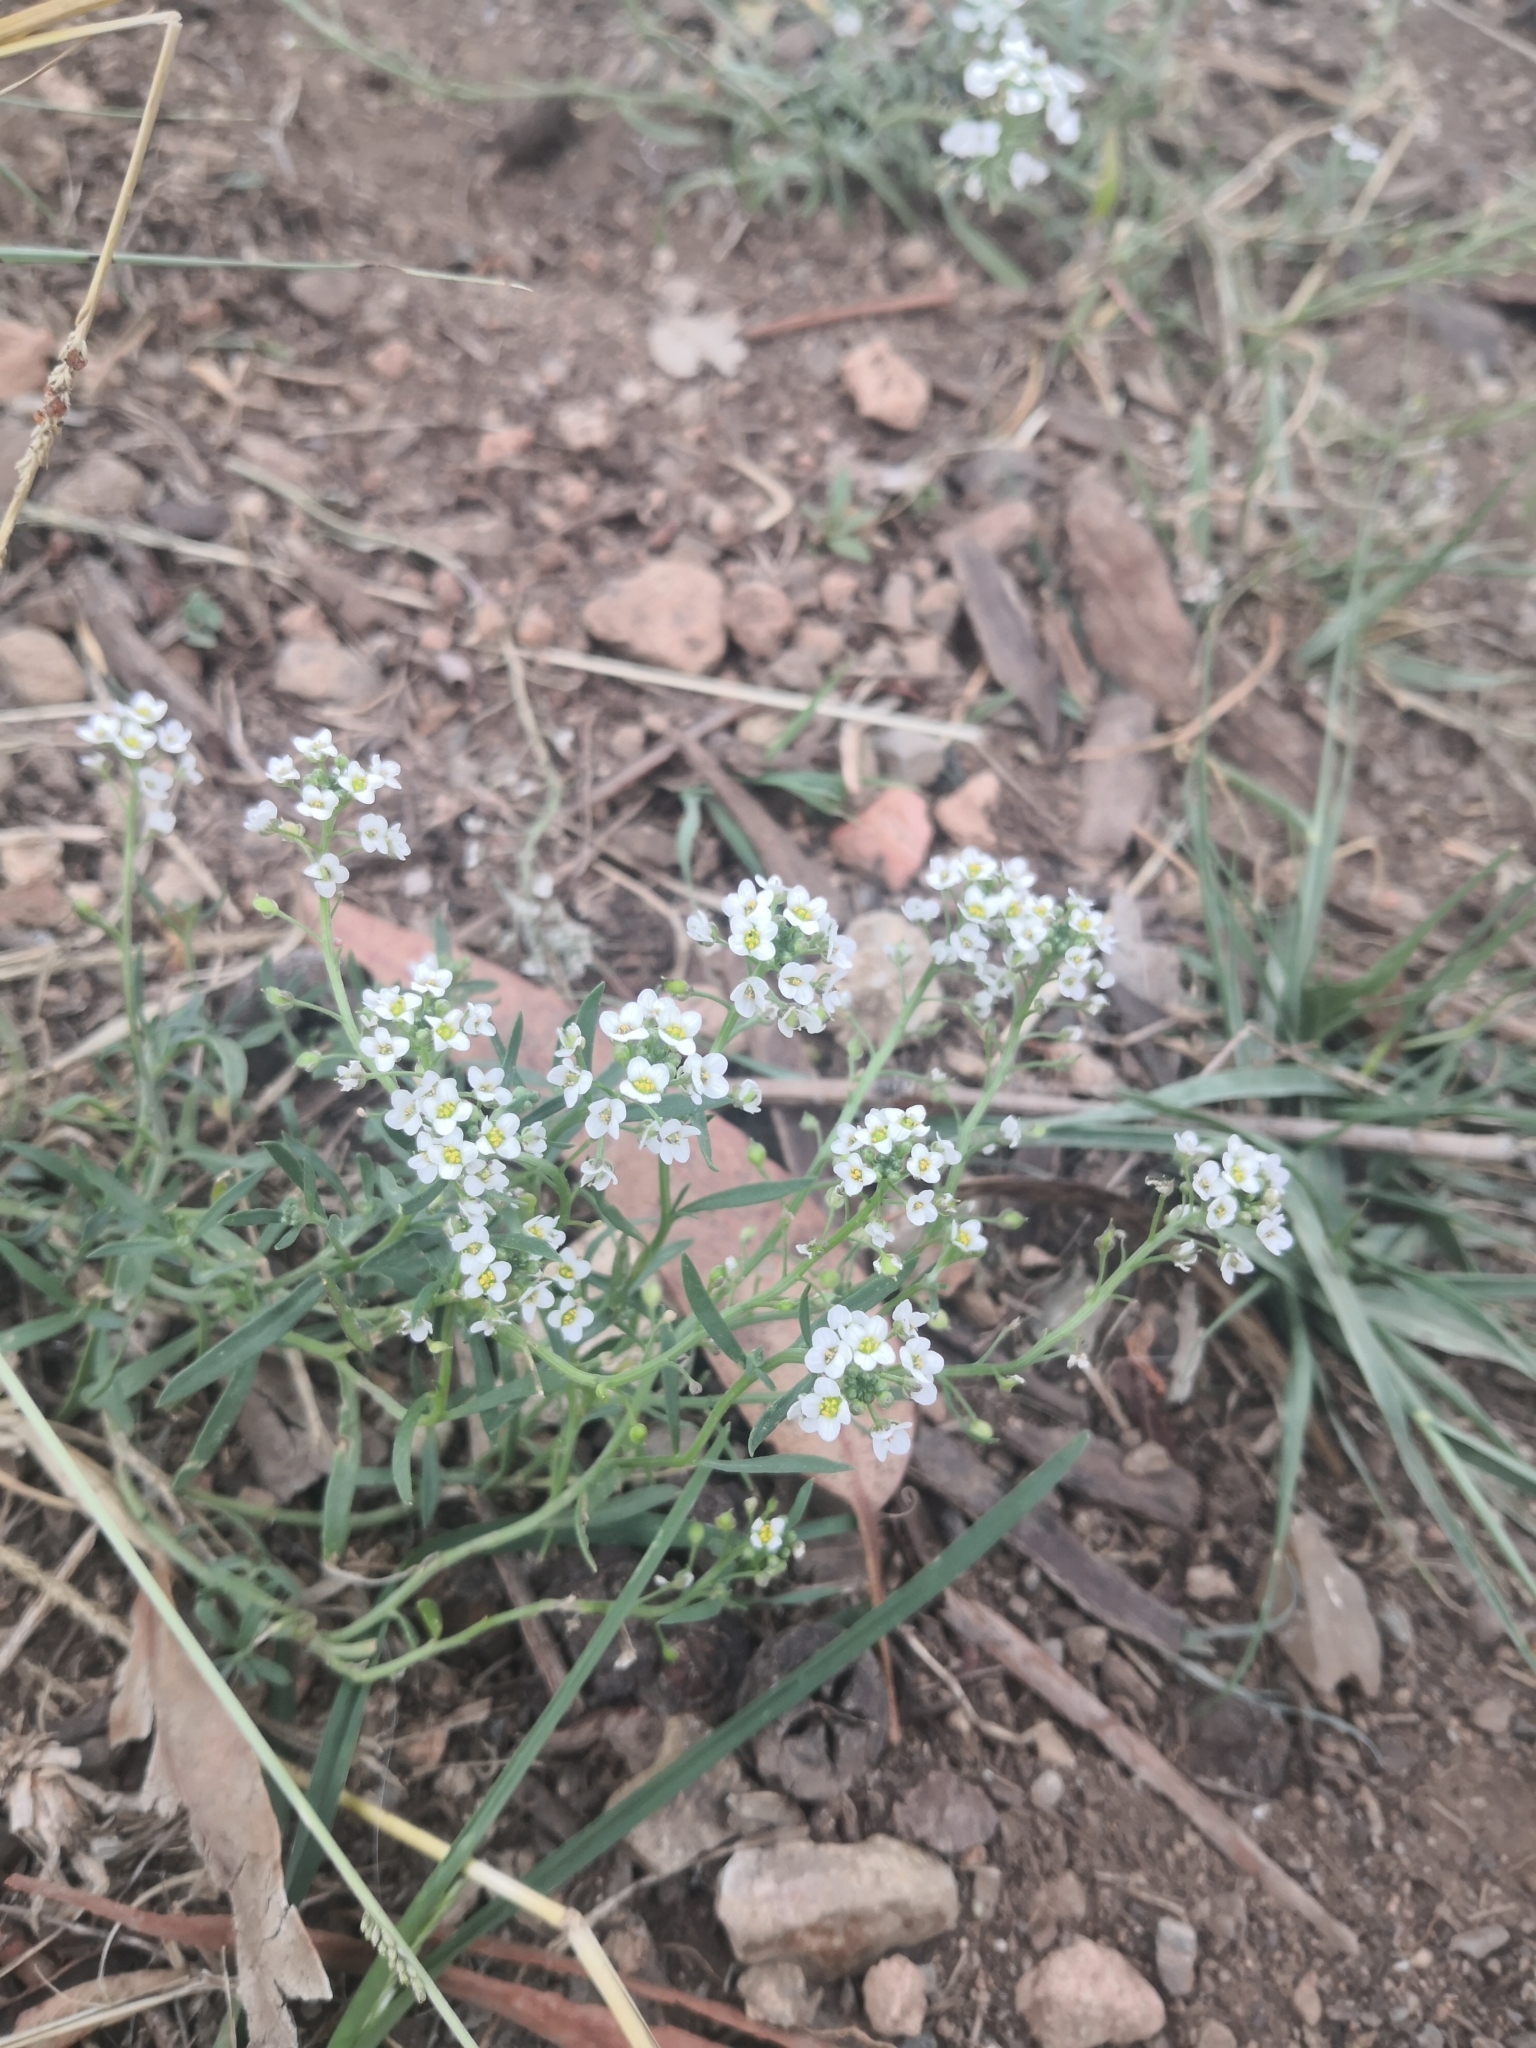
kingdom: Plantae
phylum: Tracheophyta
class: Magnoliopsida
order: Brassicales
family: Brassicaceae
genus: Lobularia
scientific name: Lobularia maritima
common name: Sweet alison
